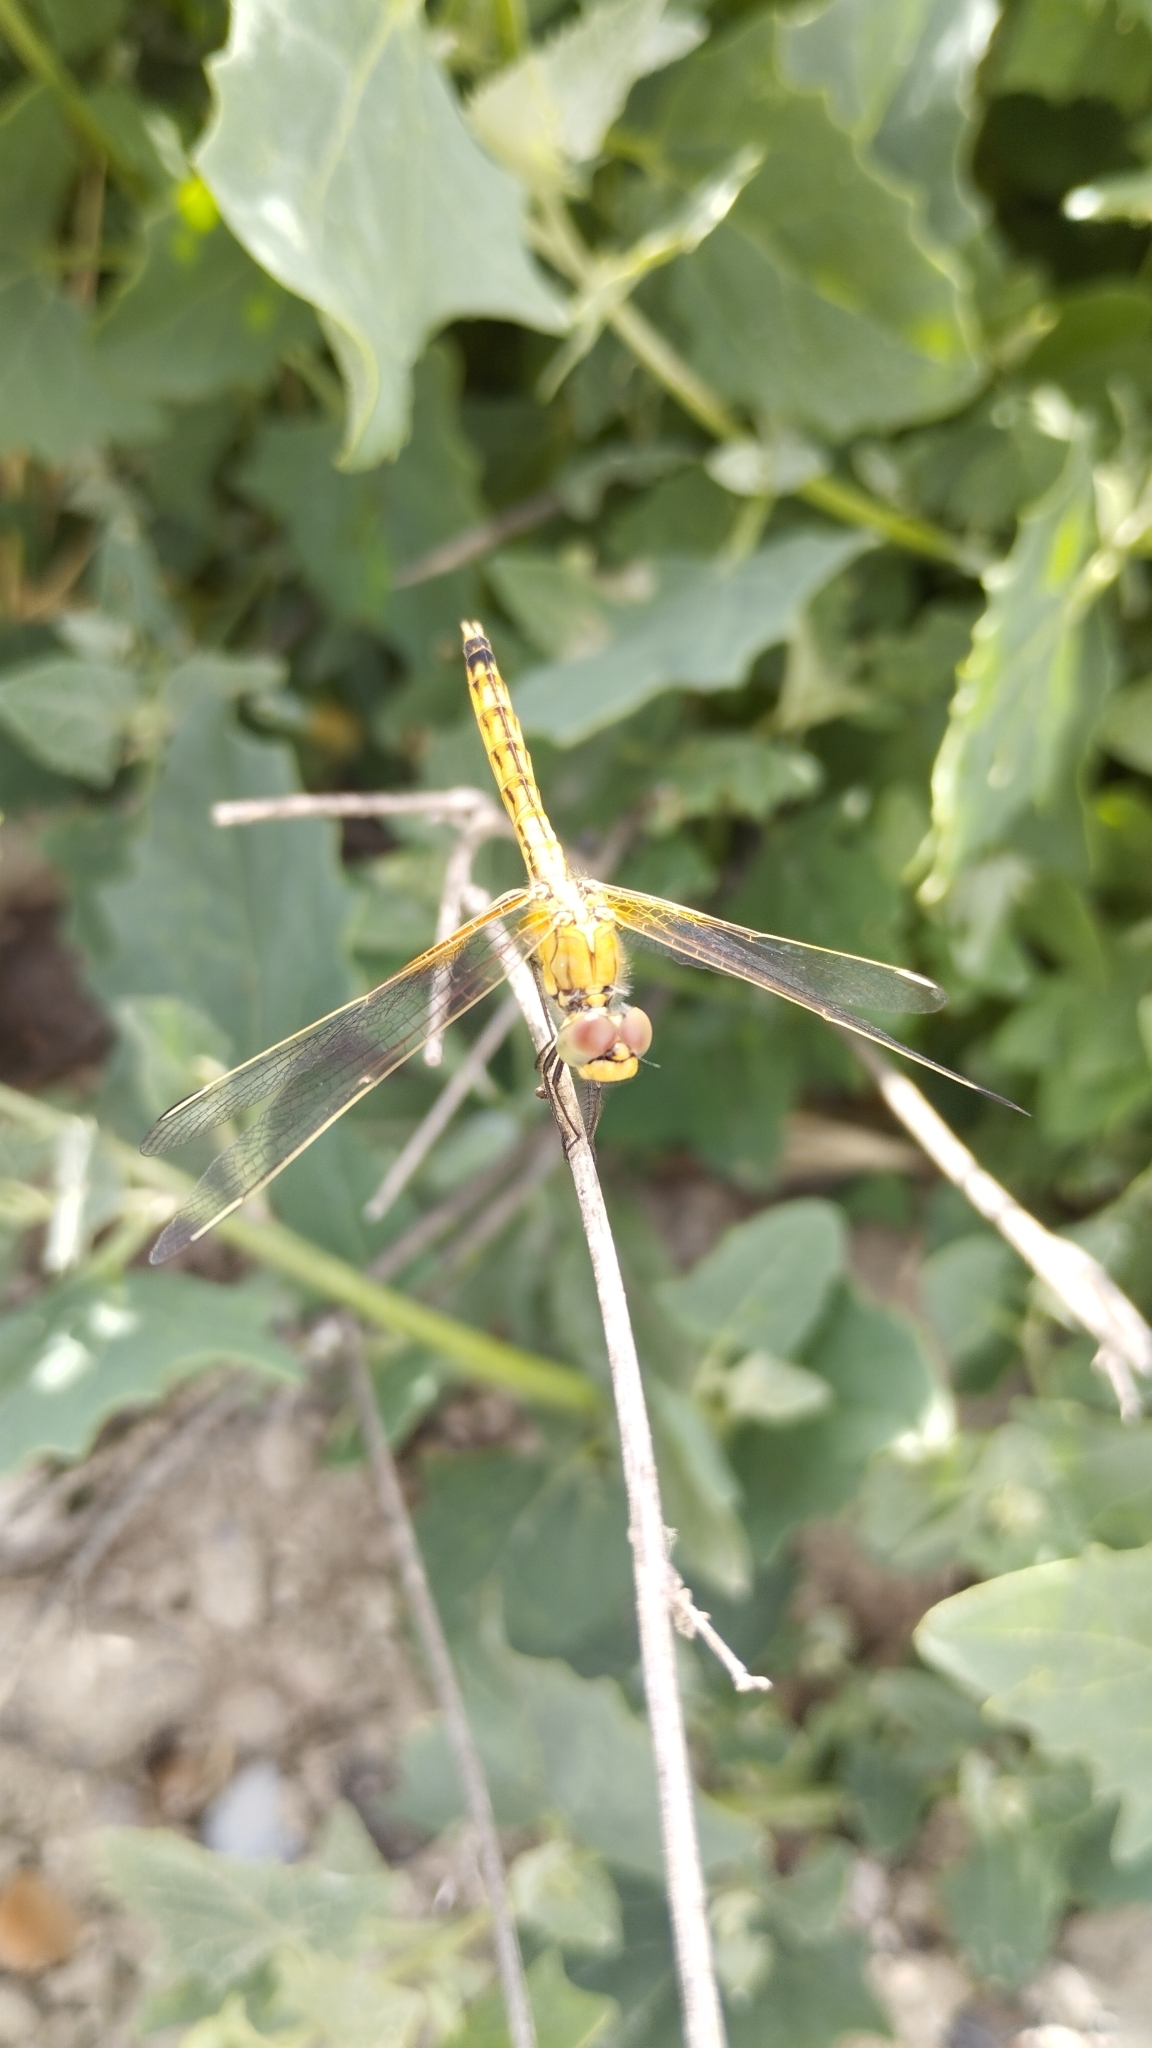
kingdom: Animalia
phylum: Arthropoda
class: Insecta
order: Odonata
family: Libellulidae
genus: Erythrodiplax
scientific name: Erythrodiplax corallina
